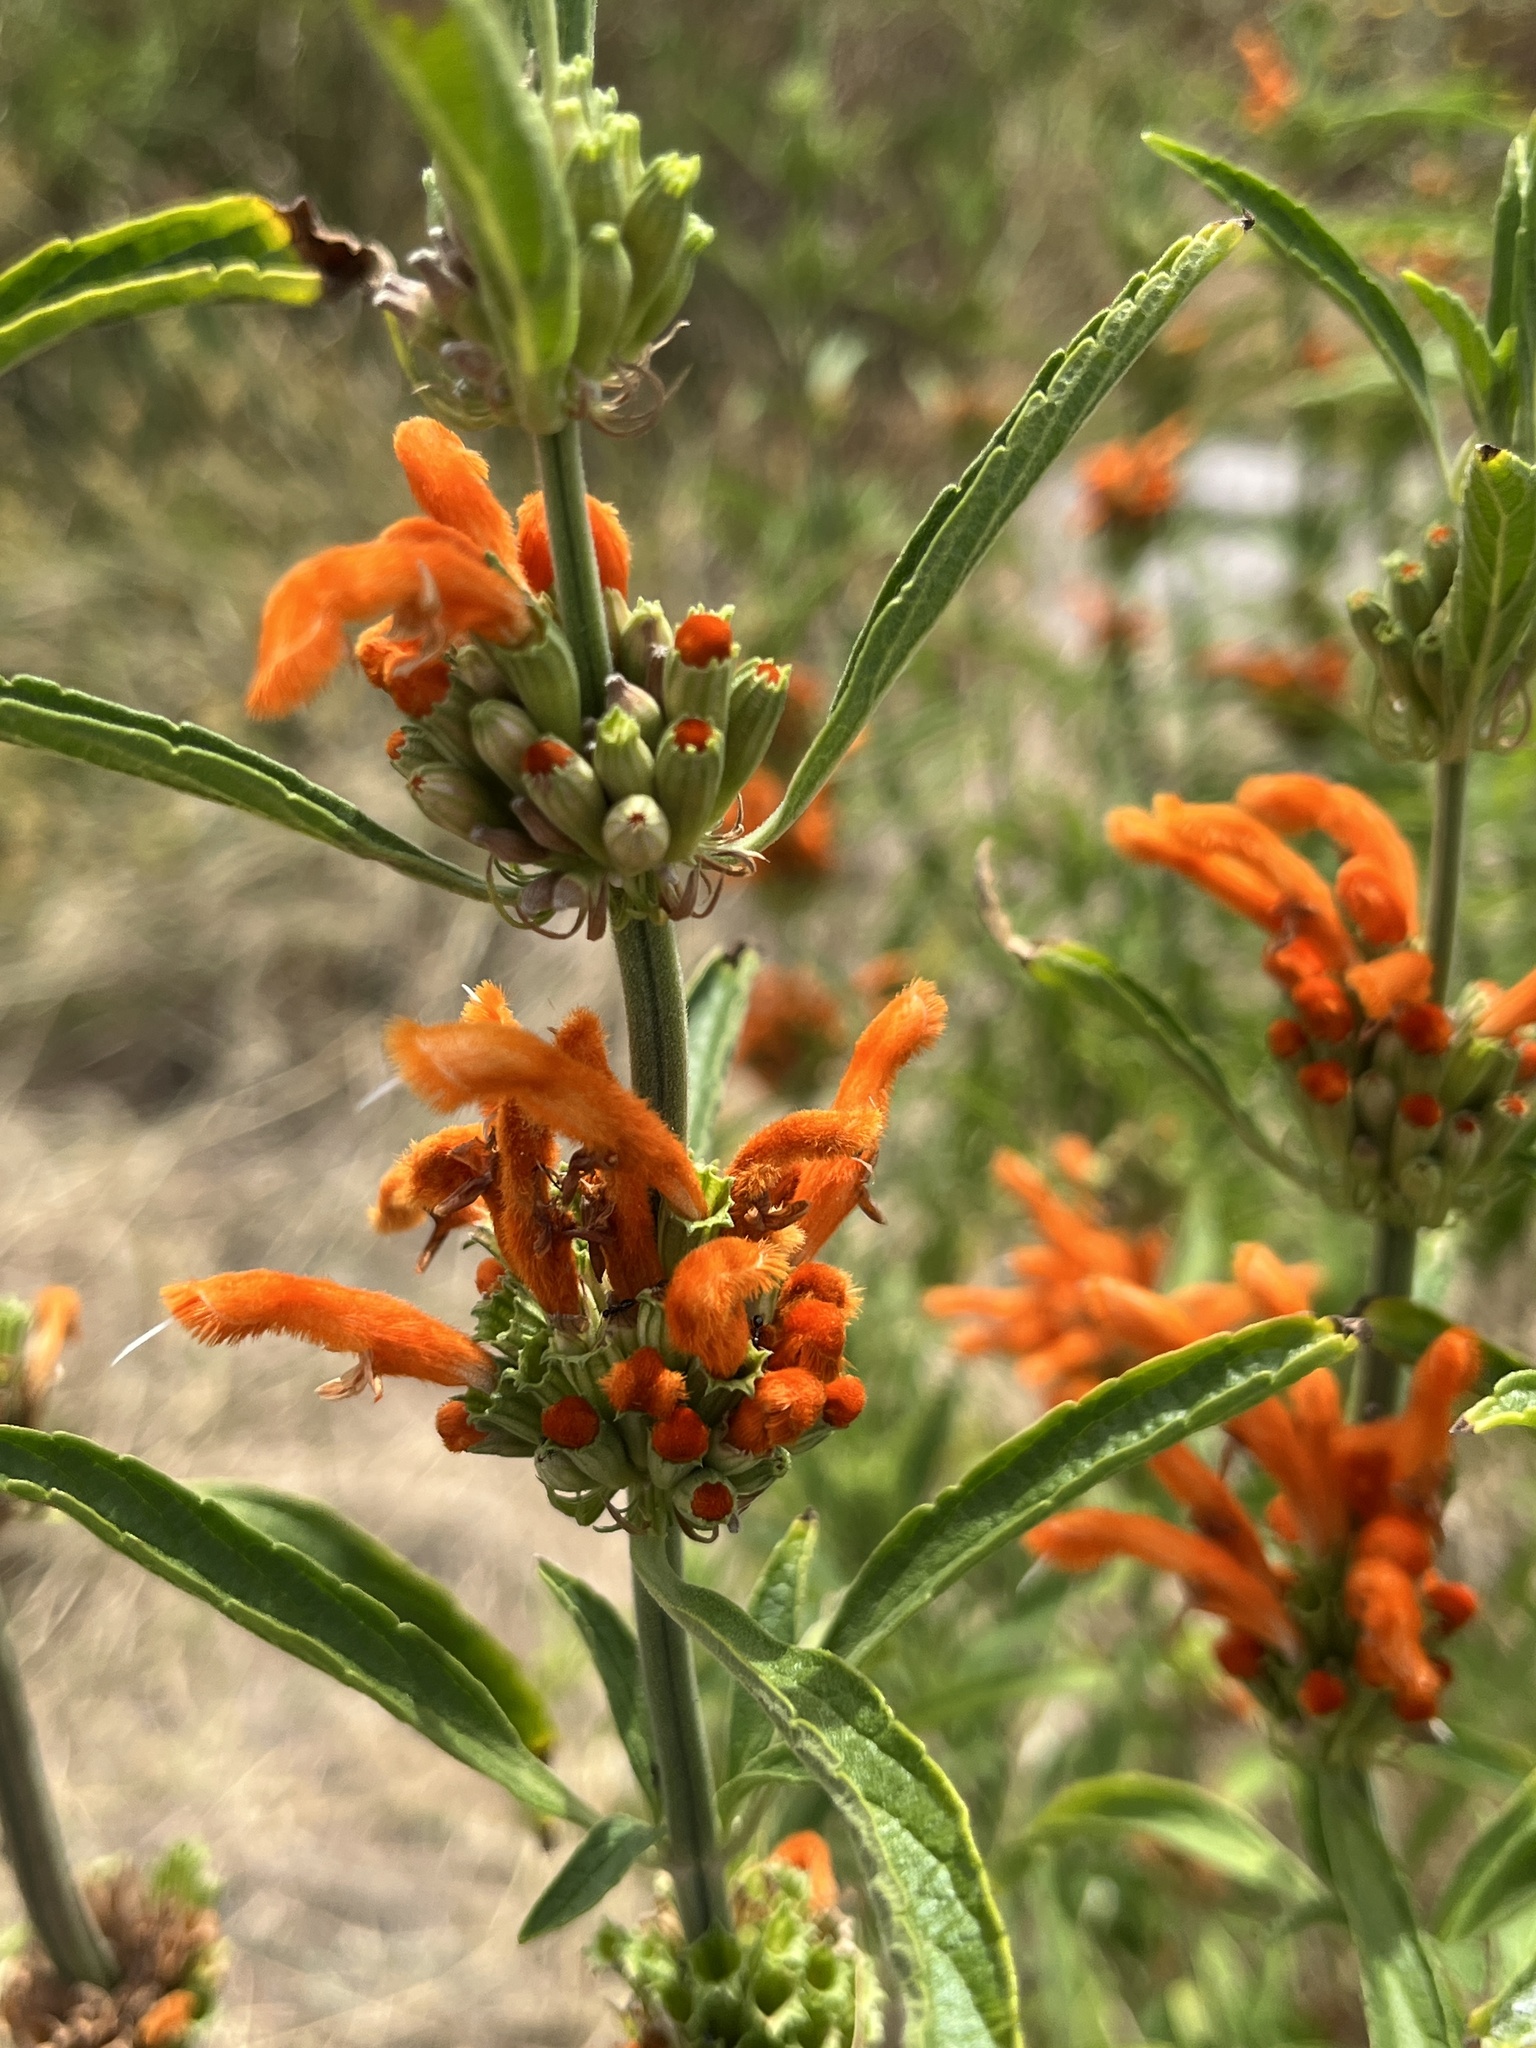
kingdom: Plantae
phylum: Tracheophyta
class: Magnoliopsida
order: Lamiales
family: Lamiaceae
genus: Leonotis
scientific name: Leonotis leonurus
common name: Lion's ear
